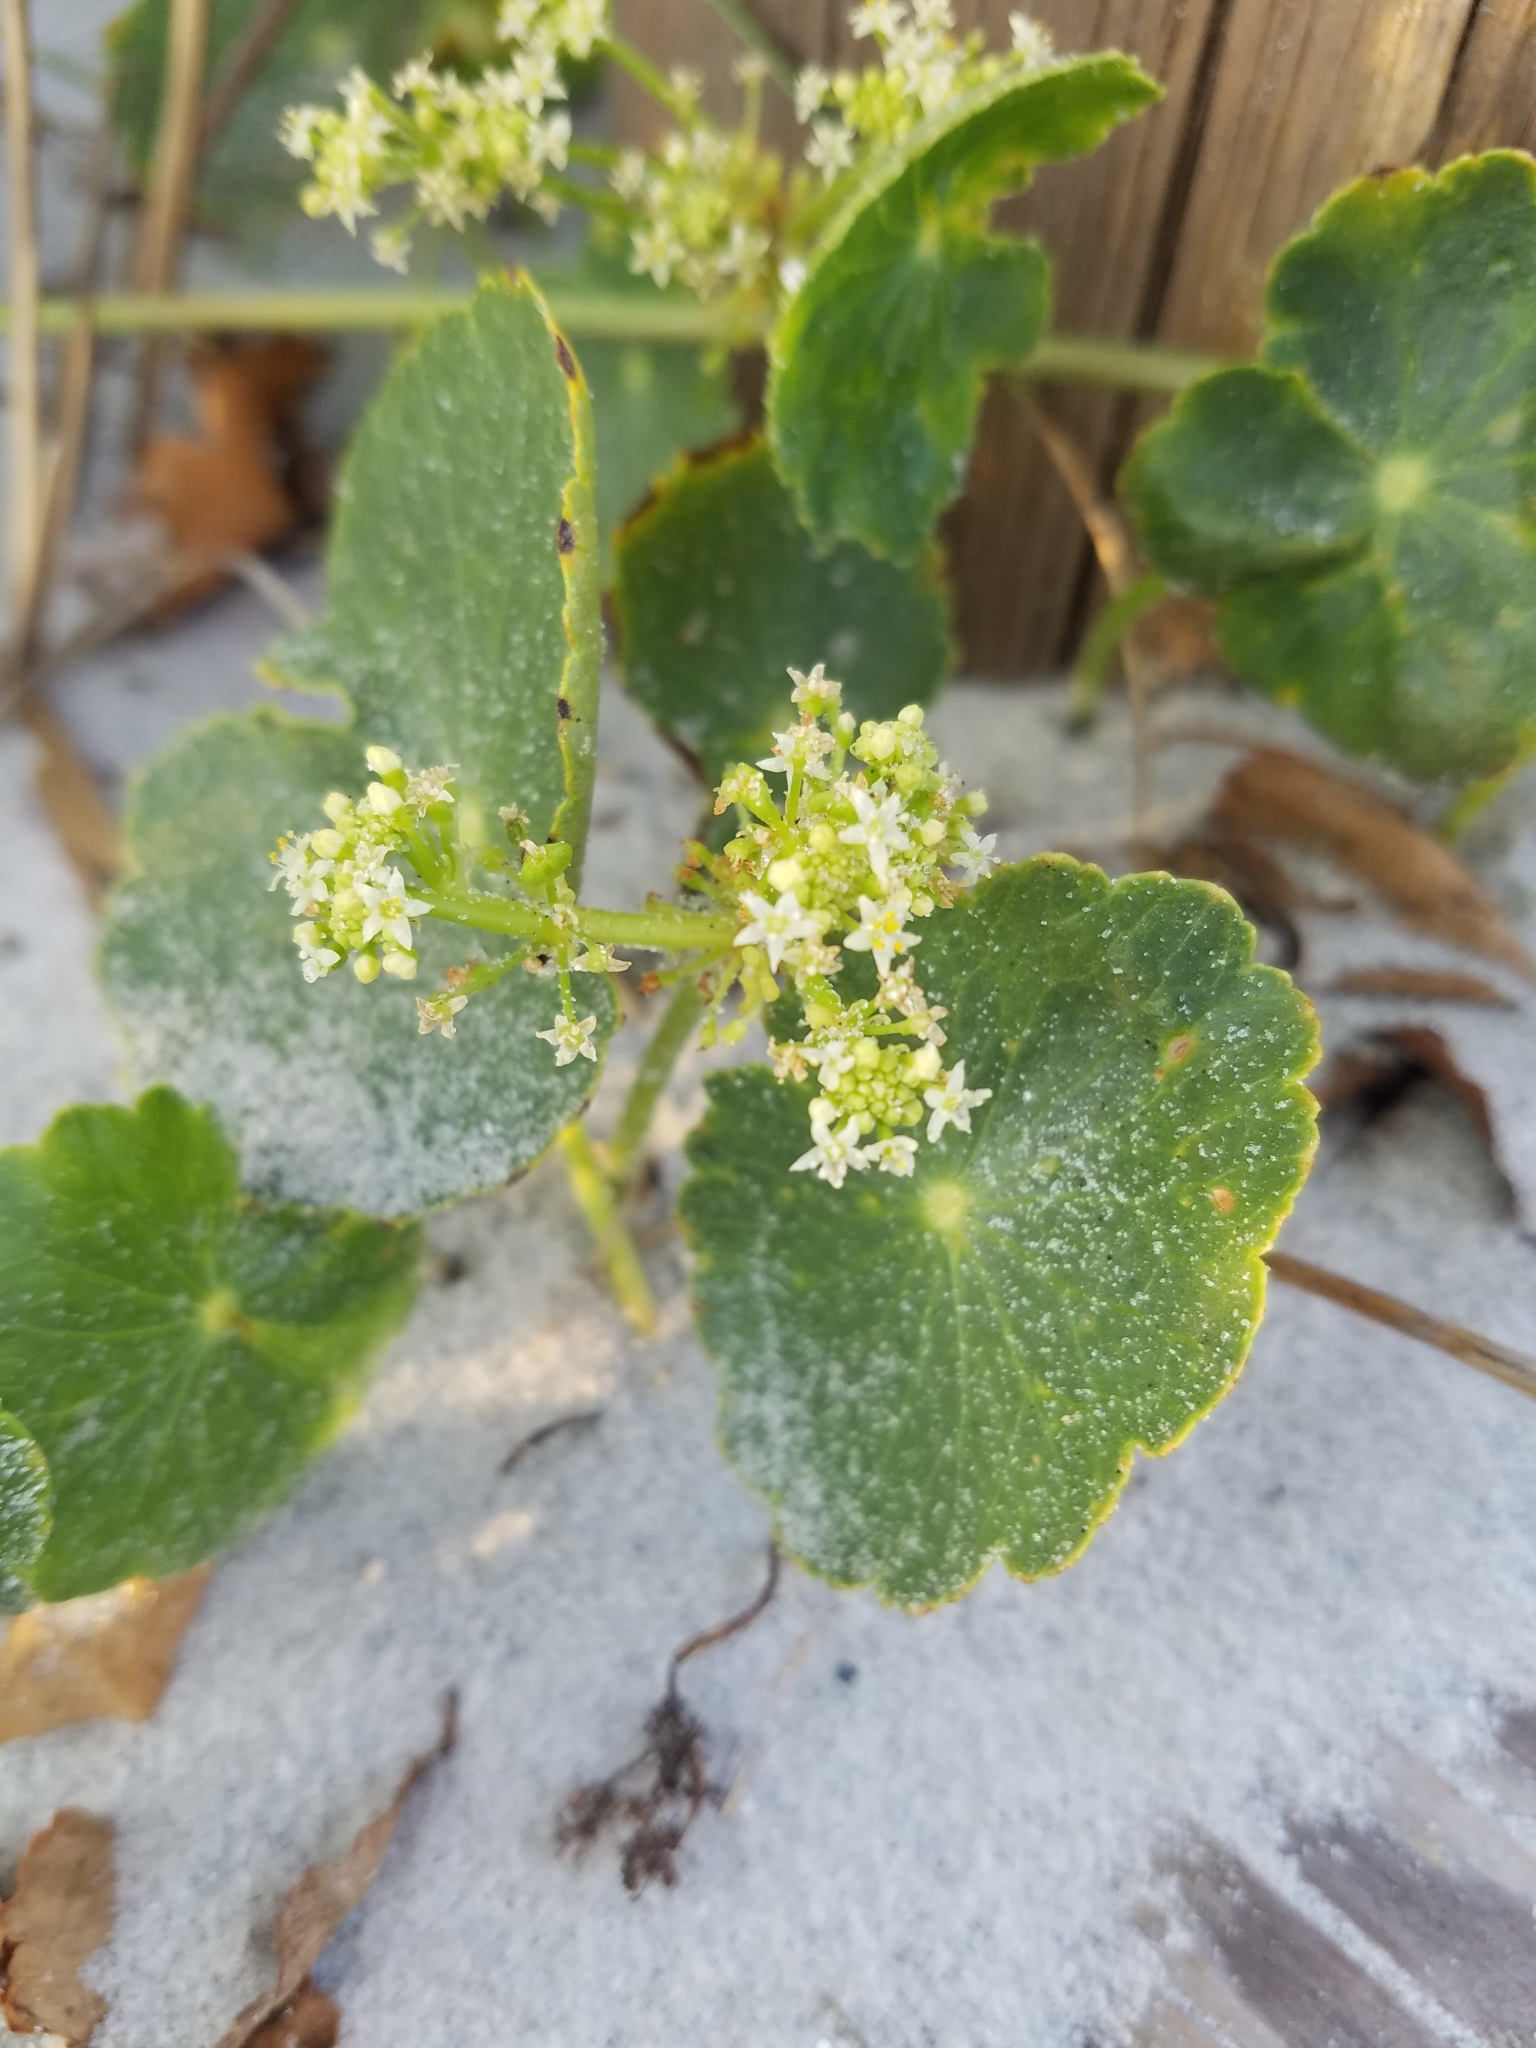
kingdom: Plantae
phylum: Tracheophyta
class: Magnoliopsida
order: Apiales
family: Araliaceae
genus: Hydrocotyle
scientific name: Hydrocotyle bonariensis
